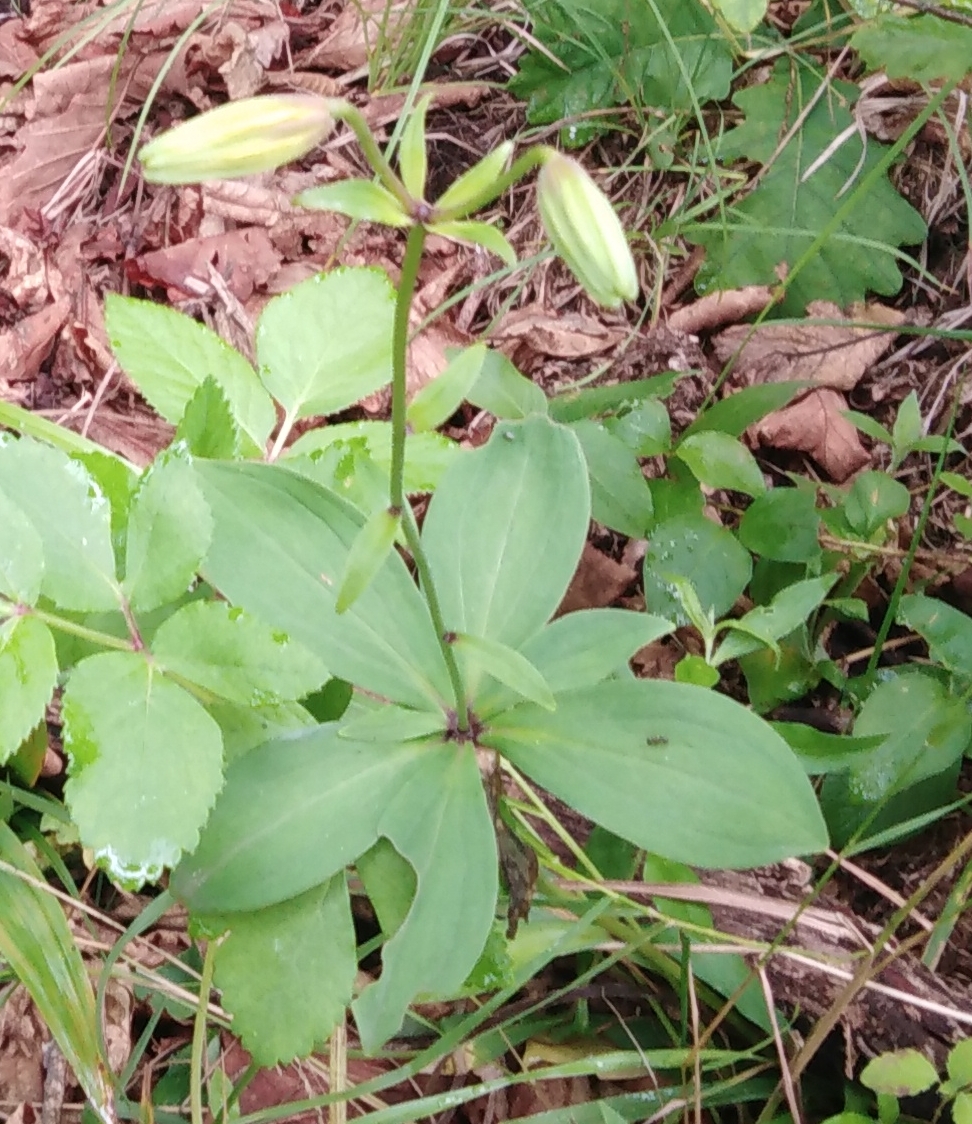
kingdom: Plantae
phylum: Tracheophyta
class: Liliopsida
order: Liliales
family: Liliaceae
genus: Lilium
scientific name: Lilium distichum
